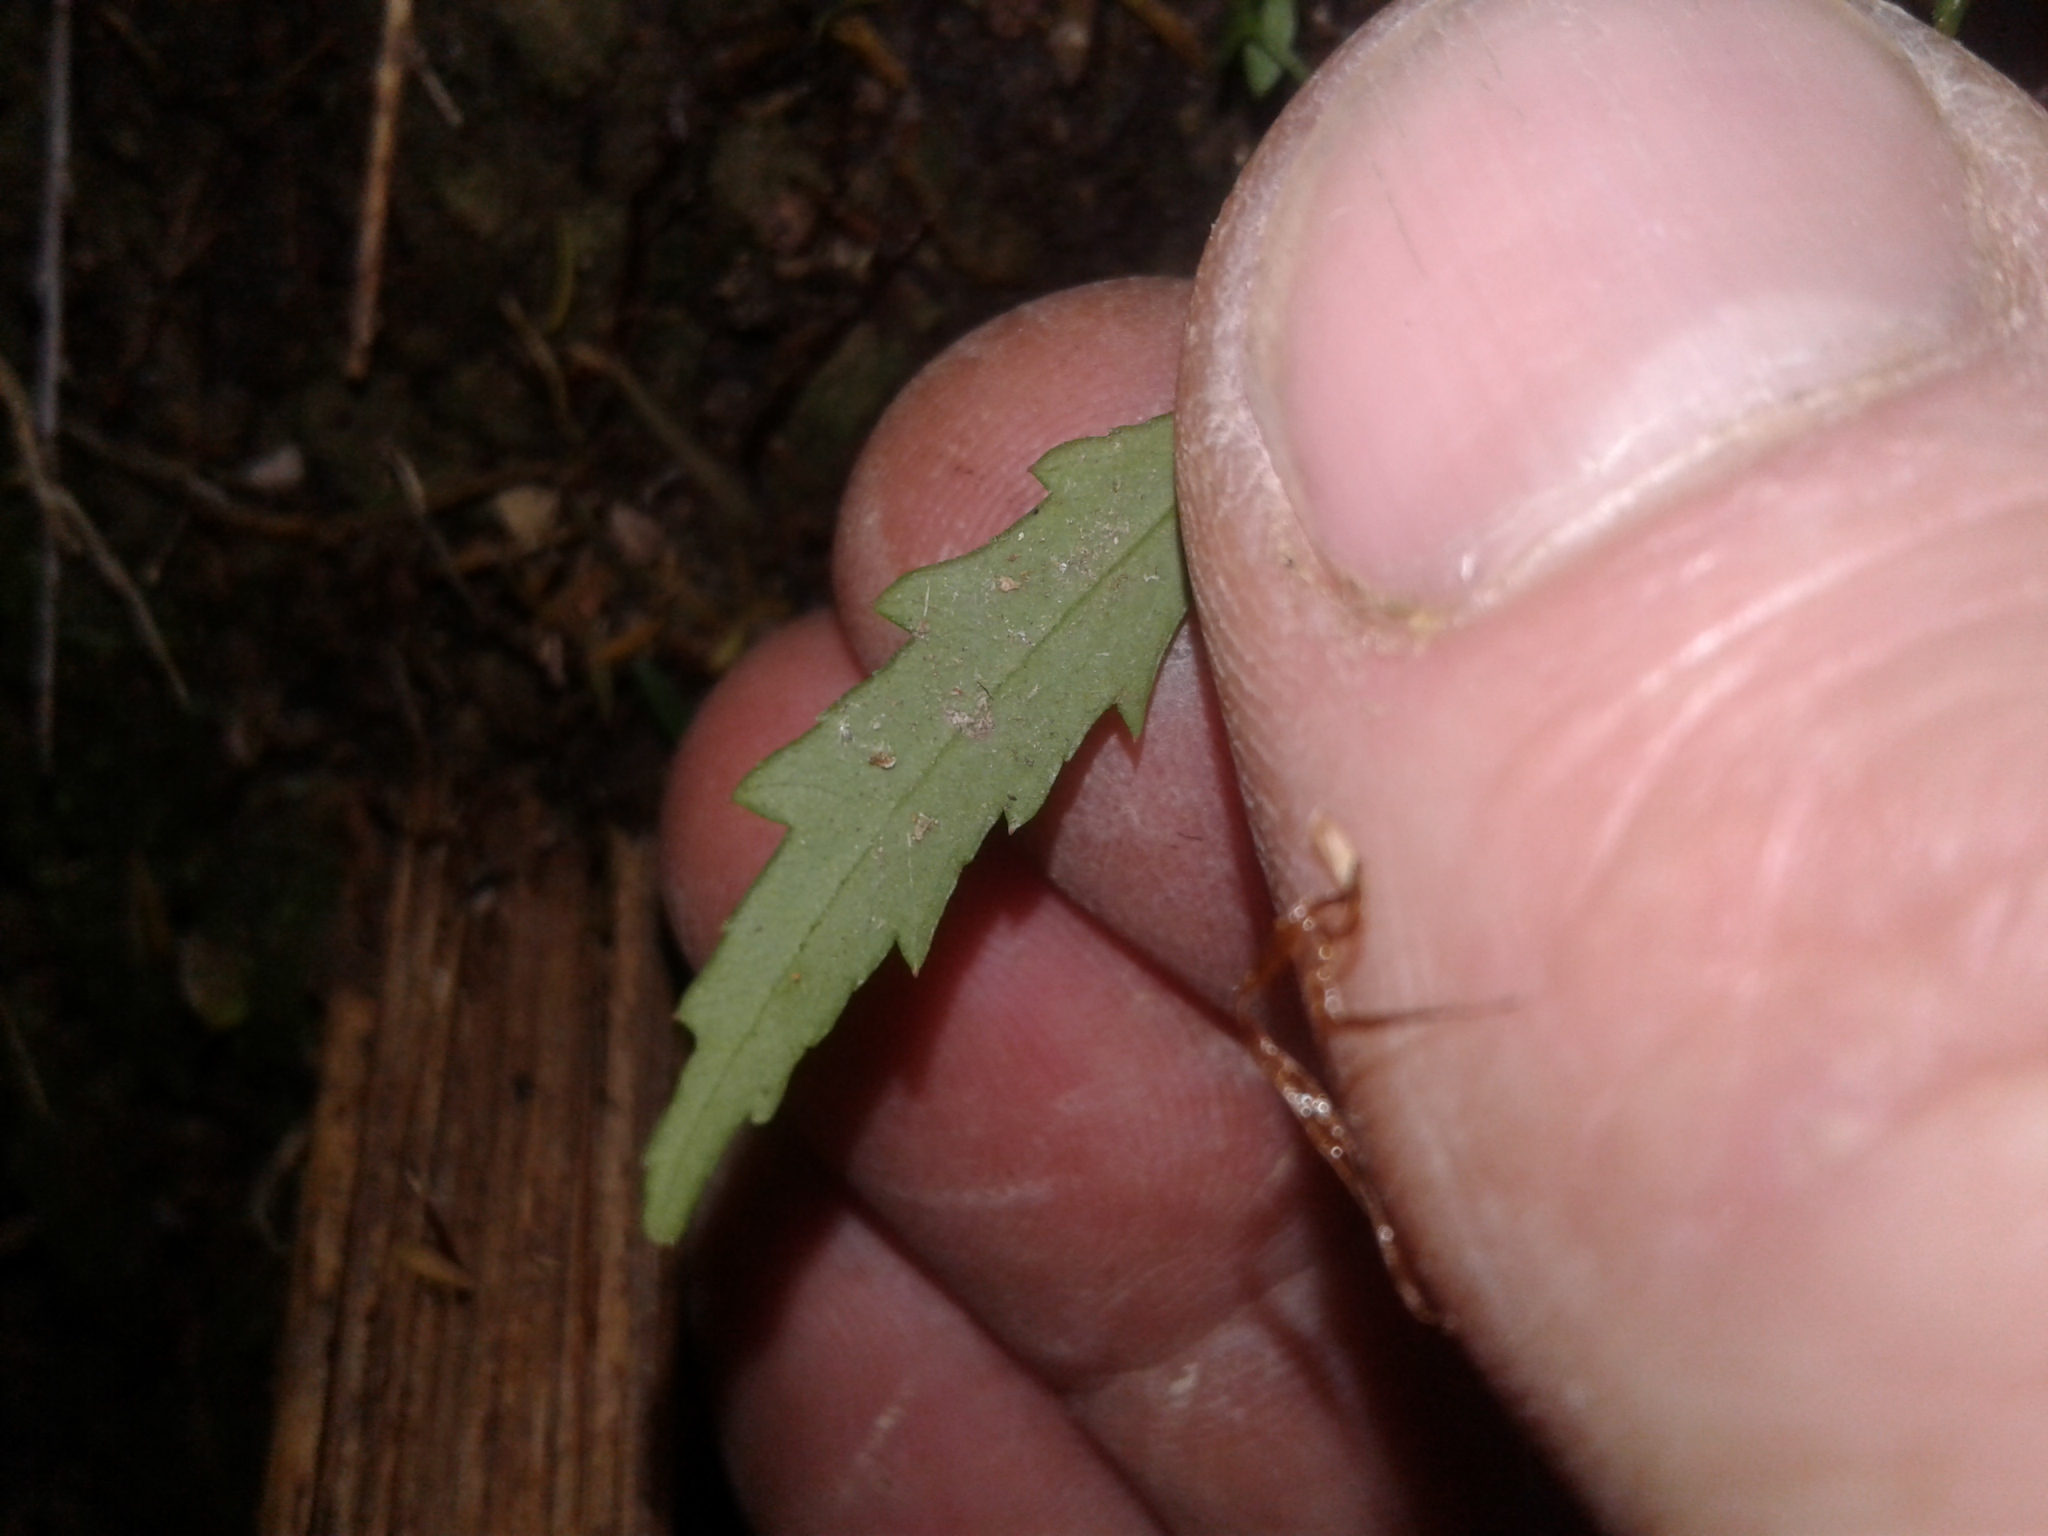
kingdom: Plantae
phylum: Tracheophyta
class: Magnoliopsida
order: Apiales
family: Araliaceae
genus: Pseudopanax
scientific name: Pseudopanax crassifolius
